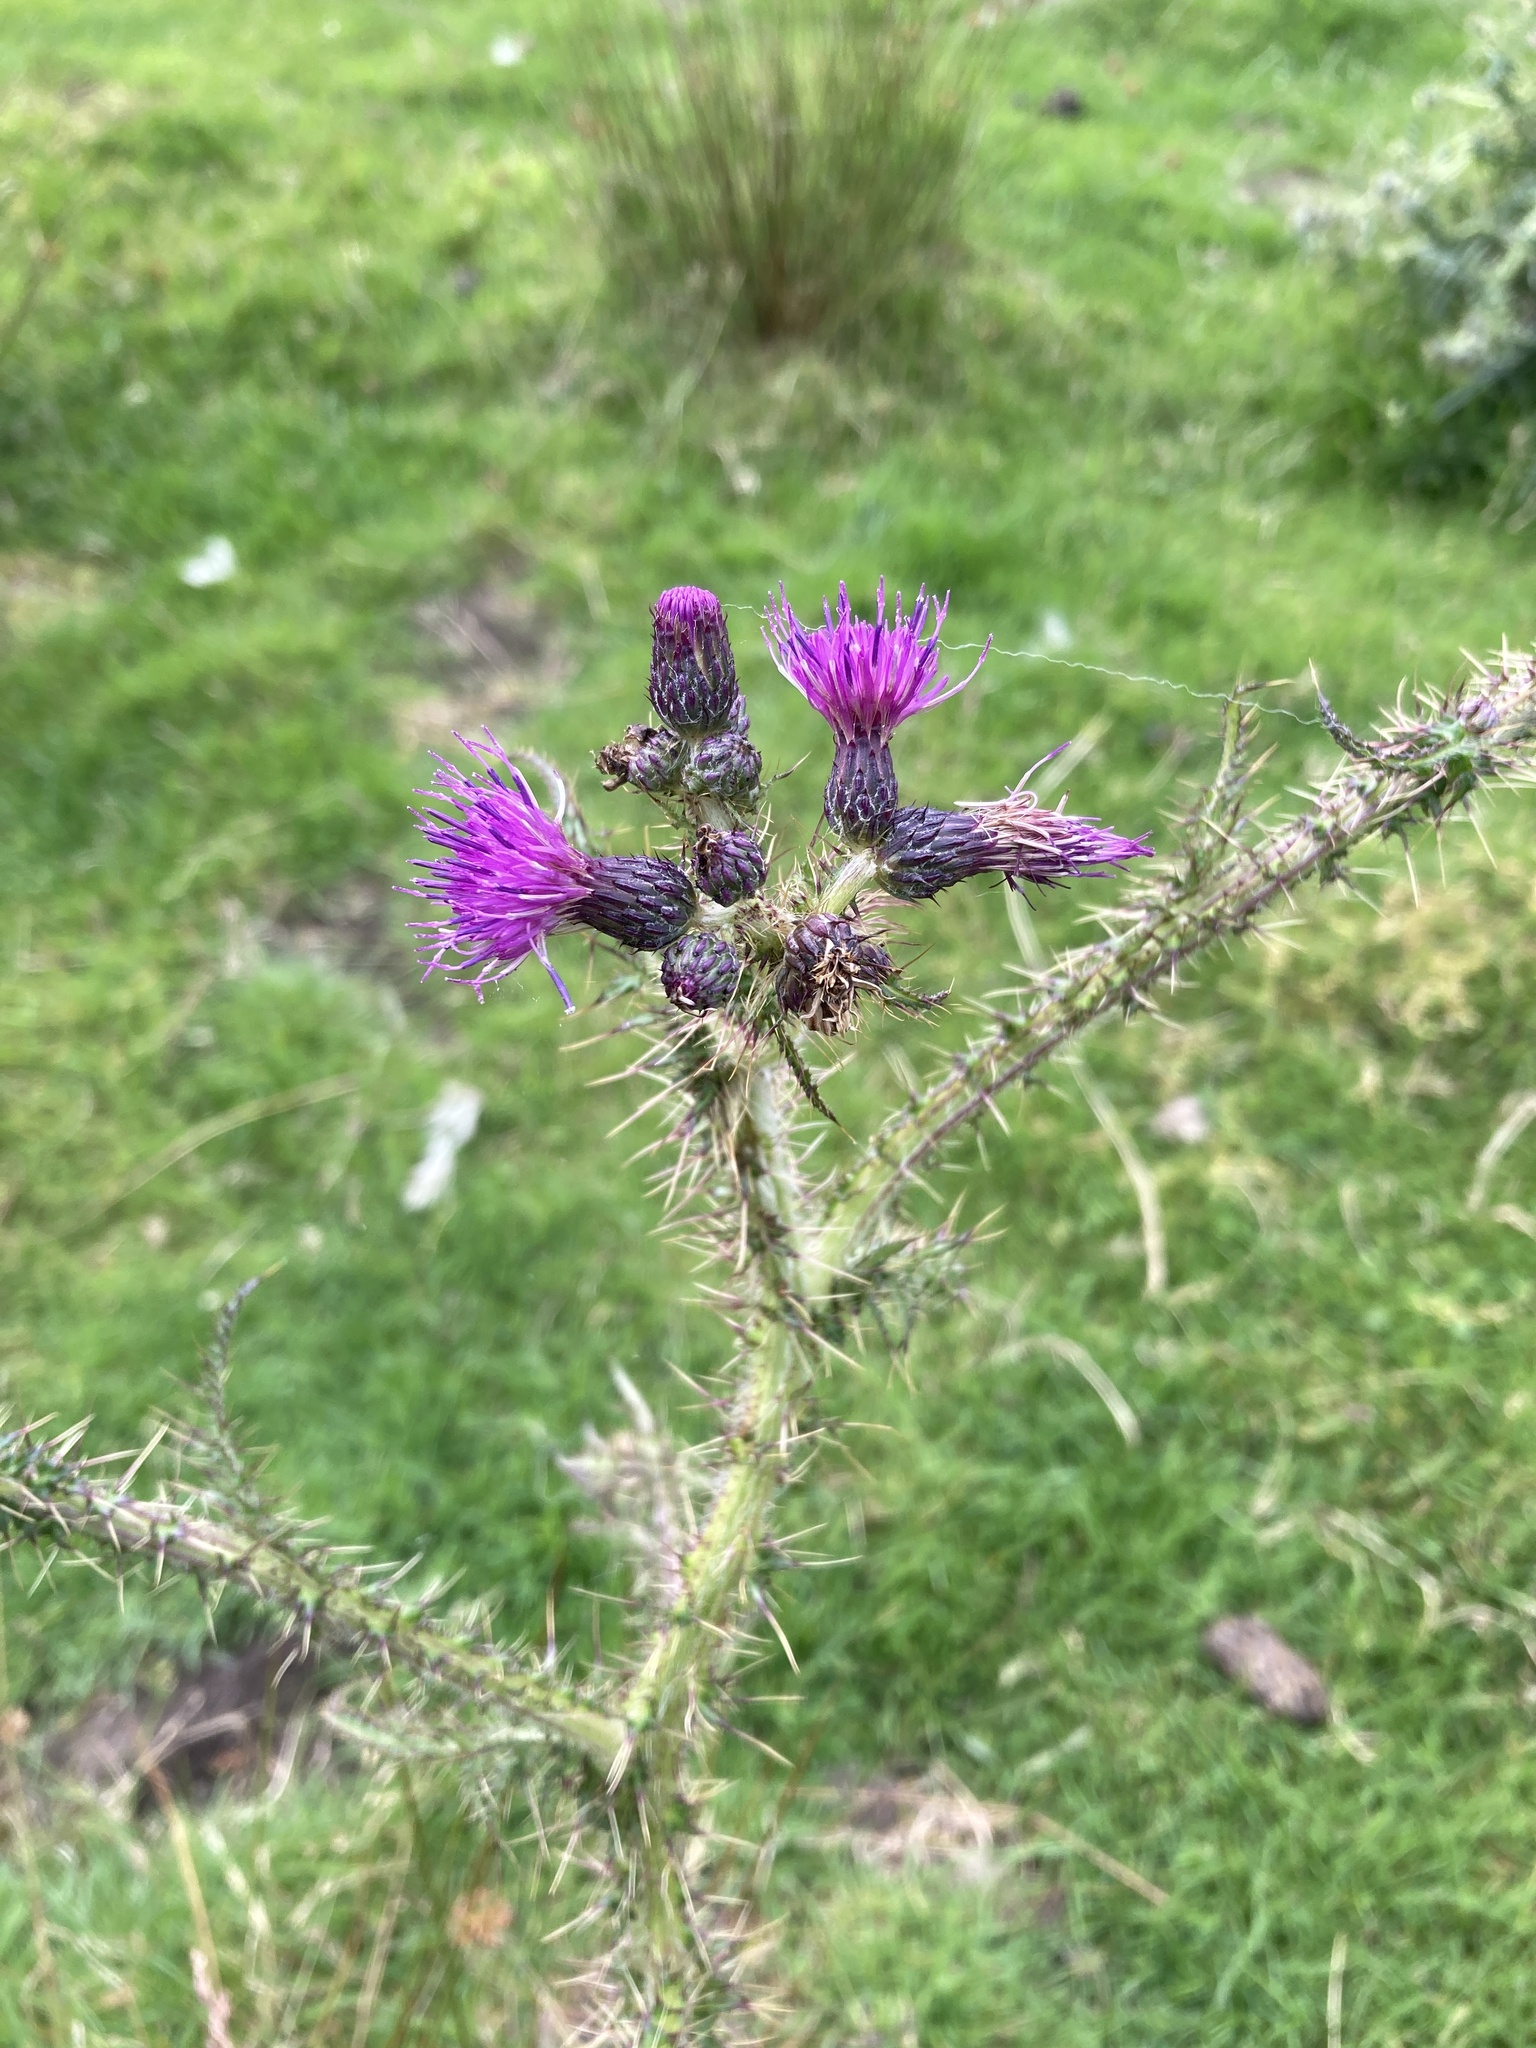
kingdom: Plantae
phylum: Tracheophyta
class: Magnoliopsida
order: Asterales
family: Asteraceae
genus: Cirsium
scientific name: Cirsium palustre
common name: Marsh thistle
